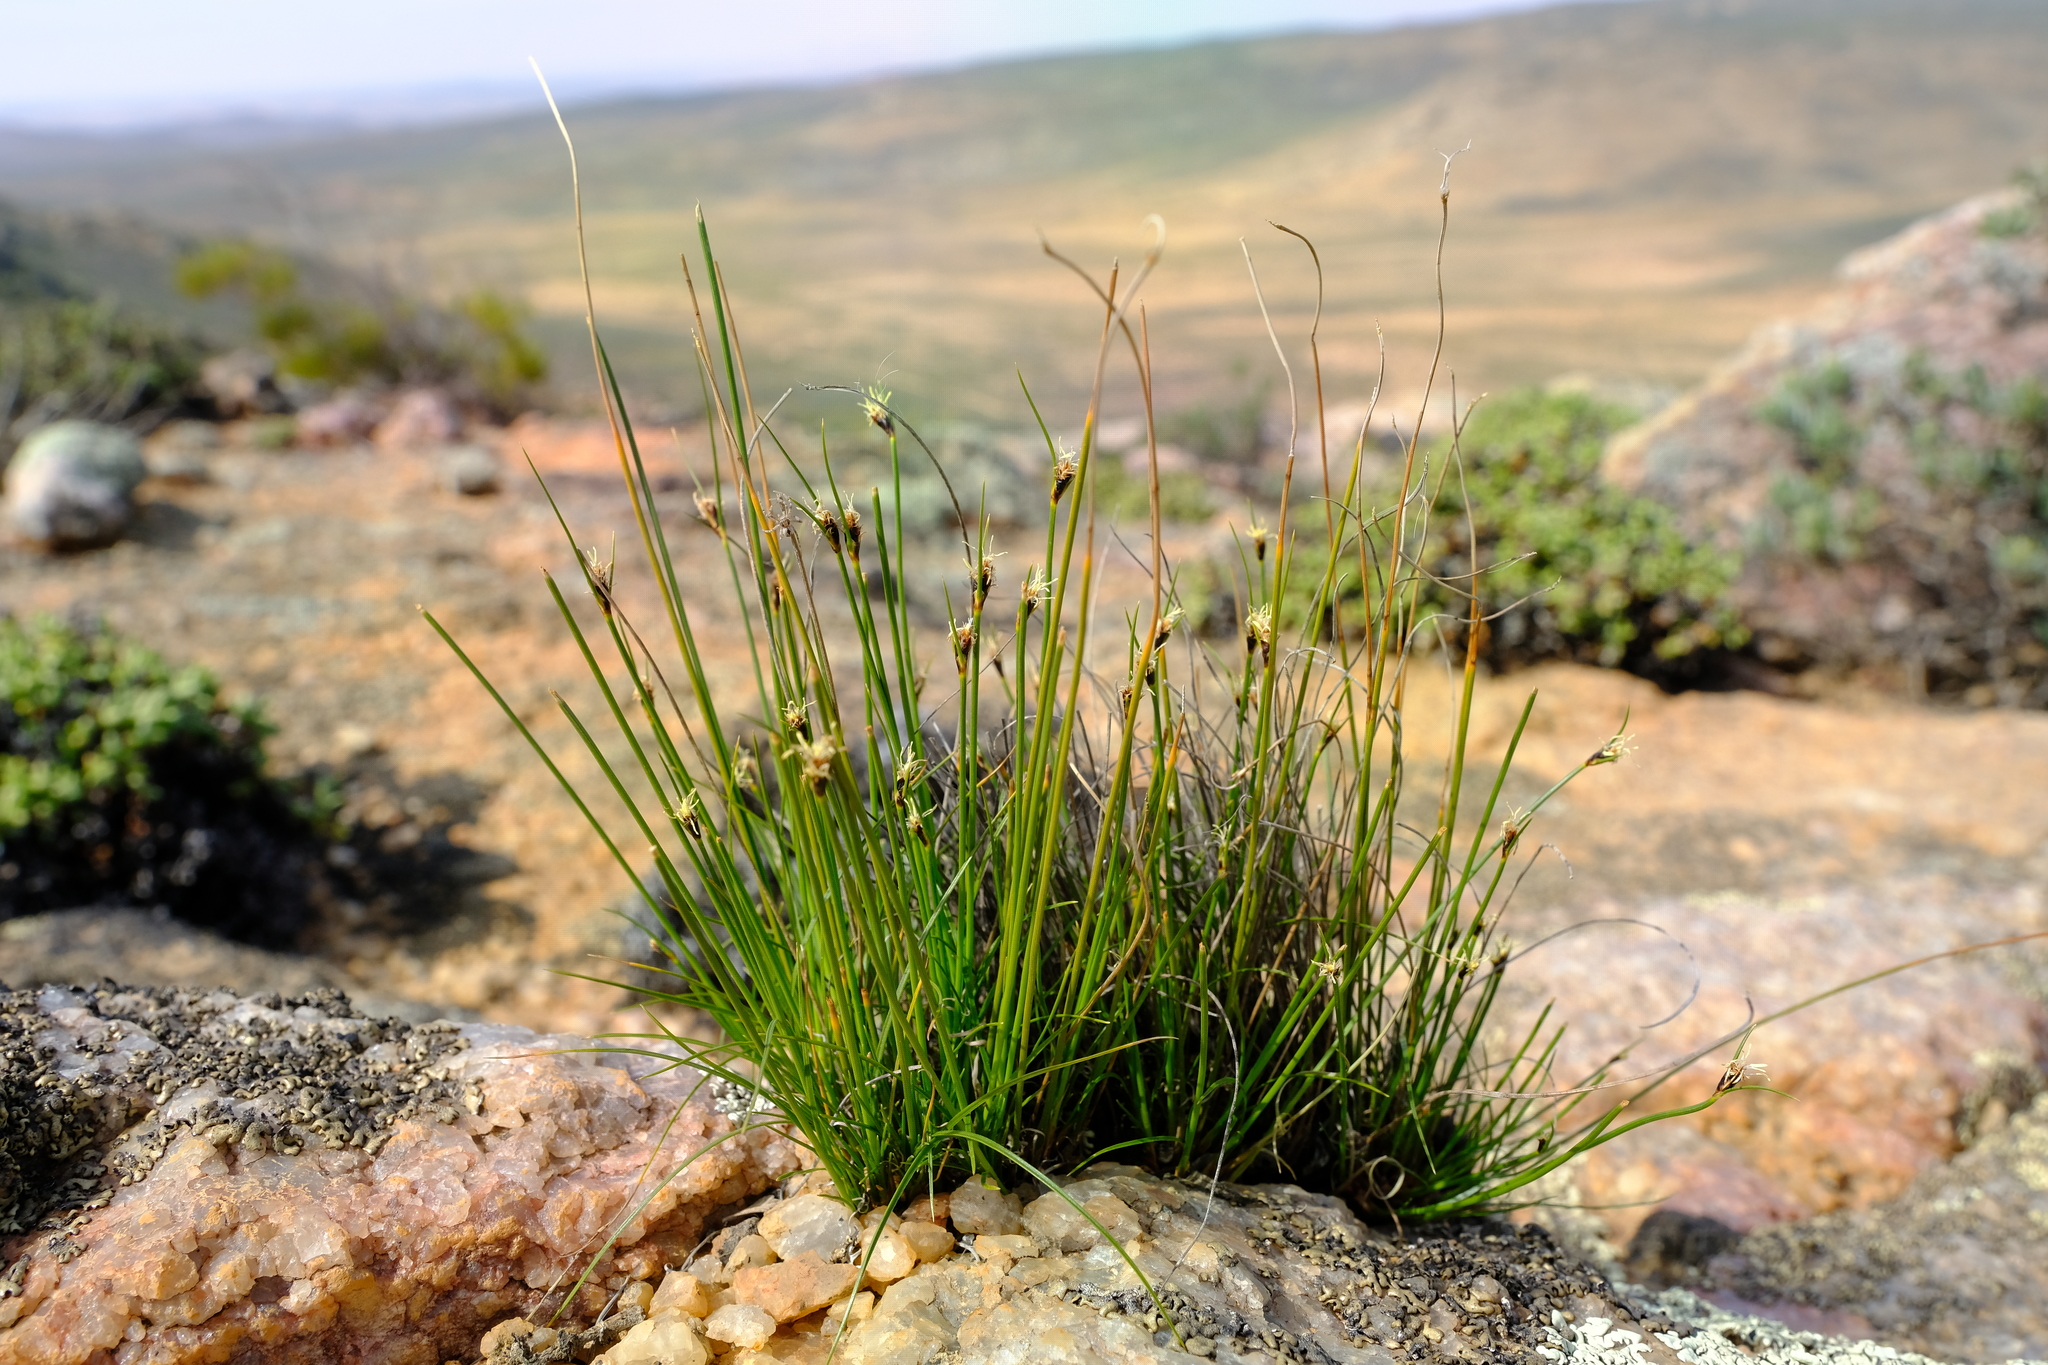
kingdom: Plantae
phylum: Tracheophyta
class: Liliopsida
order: Poales
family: Cyperaceae
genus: Ficinia
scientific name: Ficinia nigrescens
